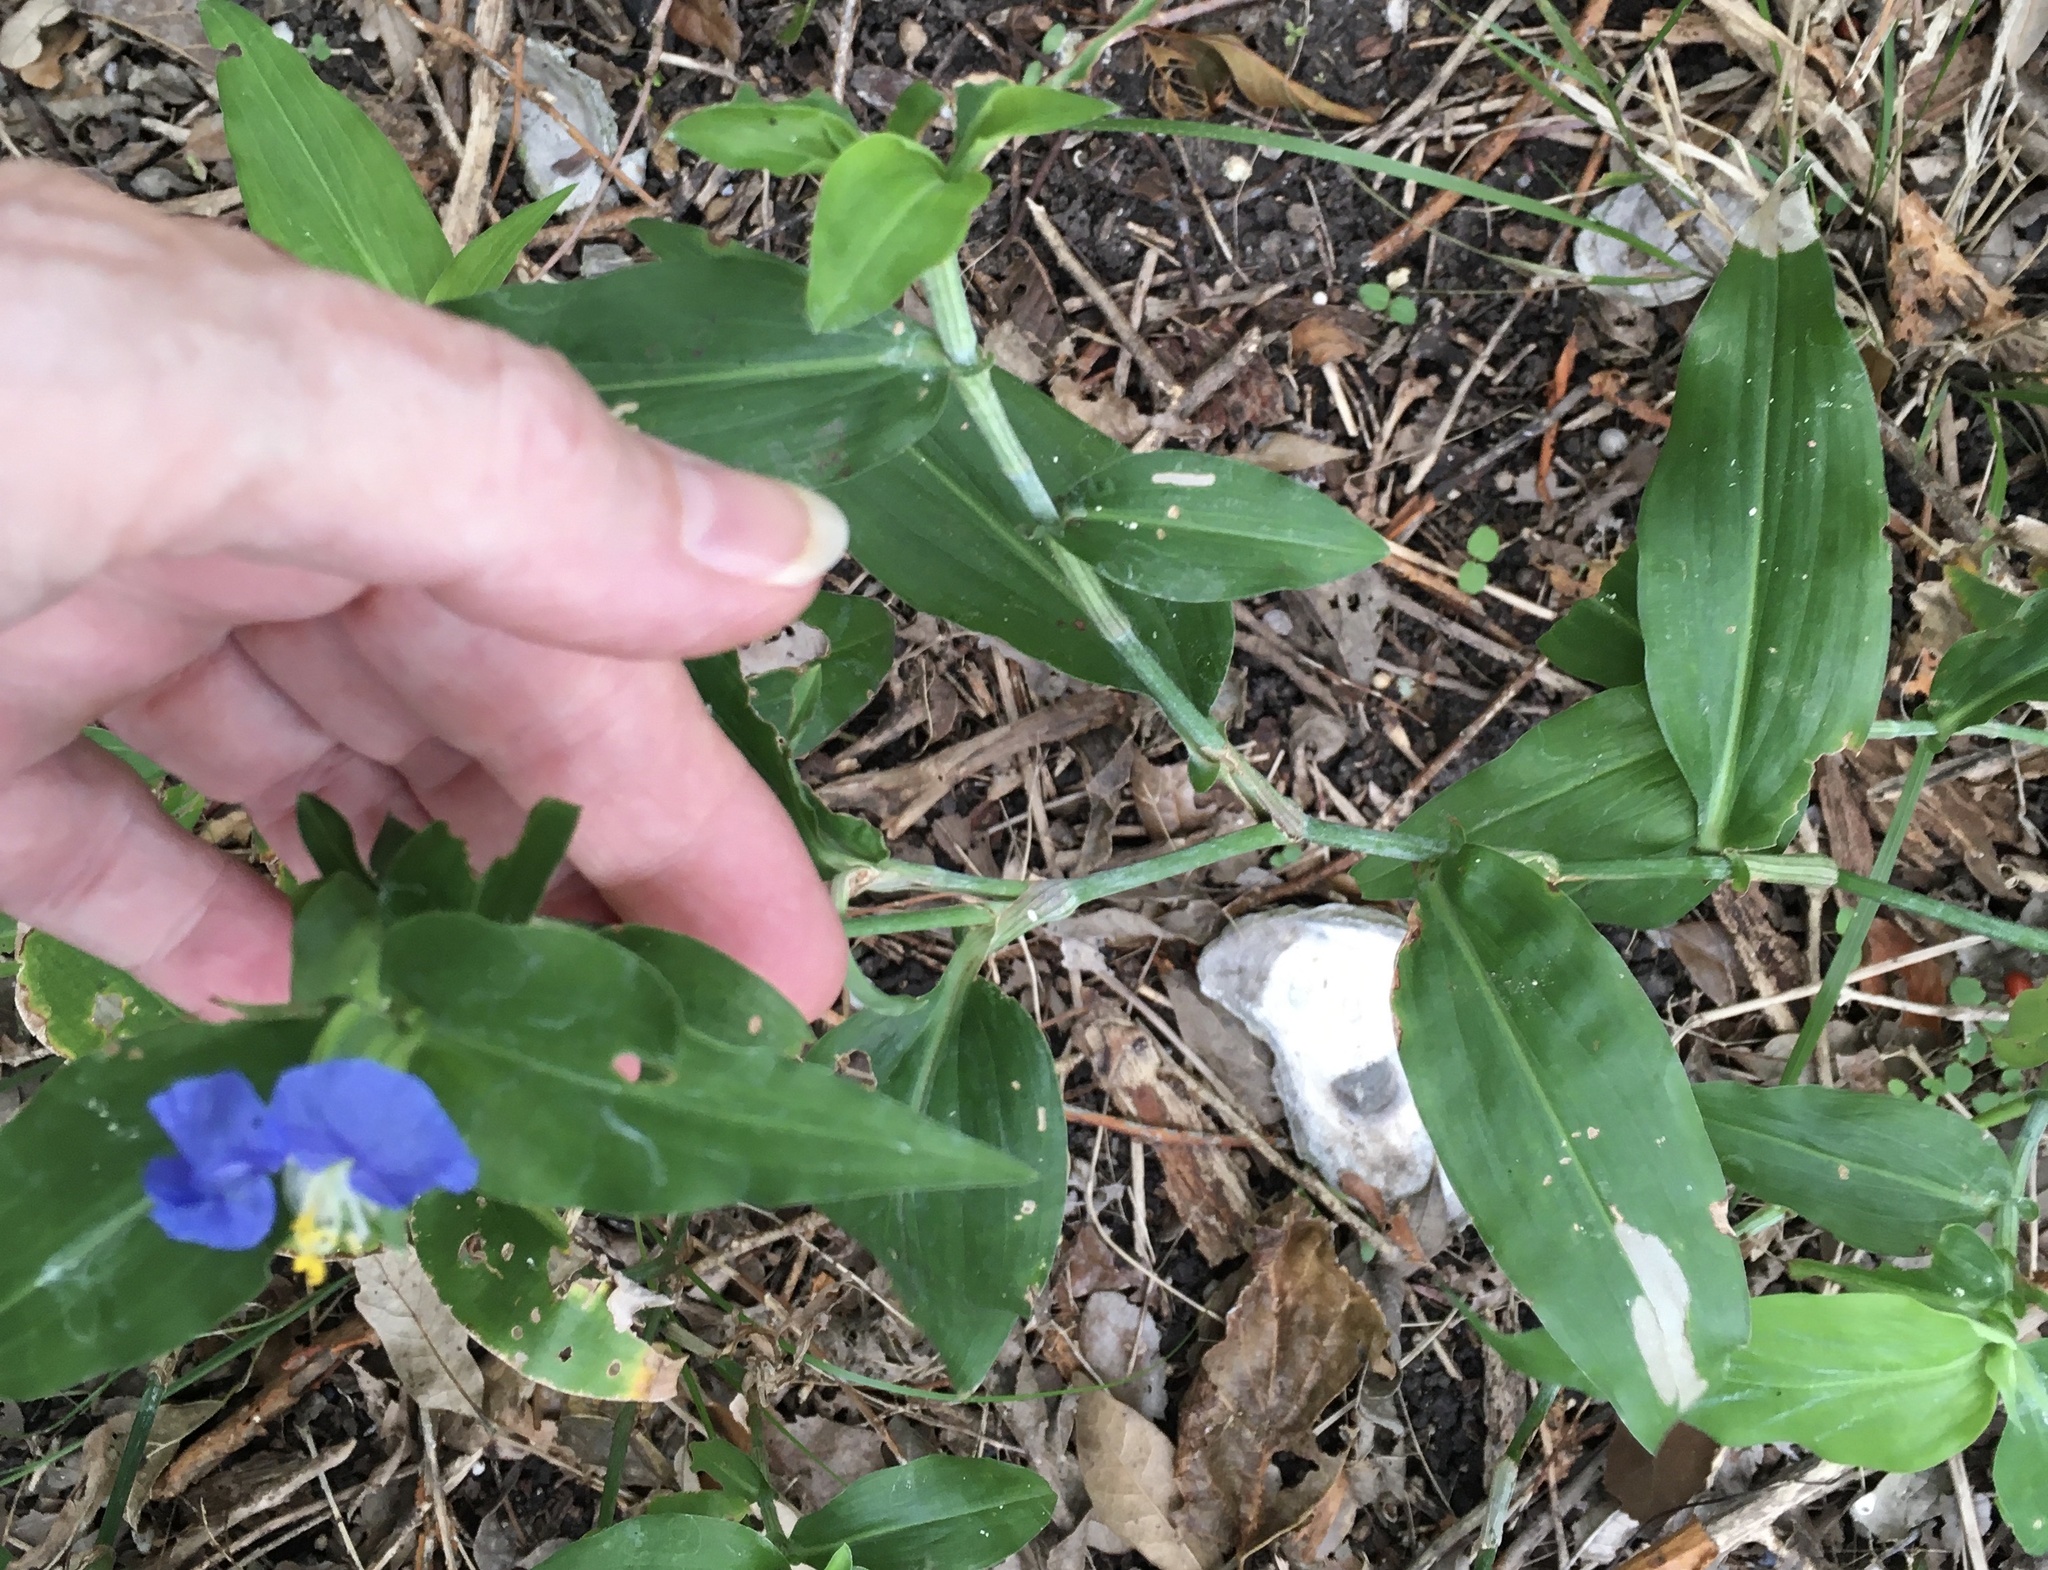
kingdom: Plantae
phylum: Tracheophyta
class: Liliopsida
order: Commelinales
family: Commelinaceae
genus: Commelina
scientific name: Commelina erecta
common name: Blousel blommetjie
